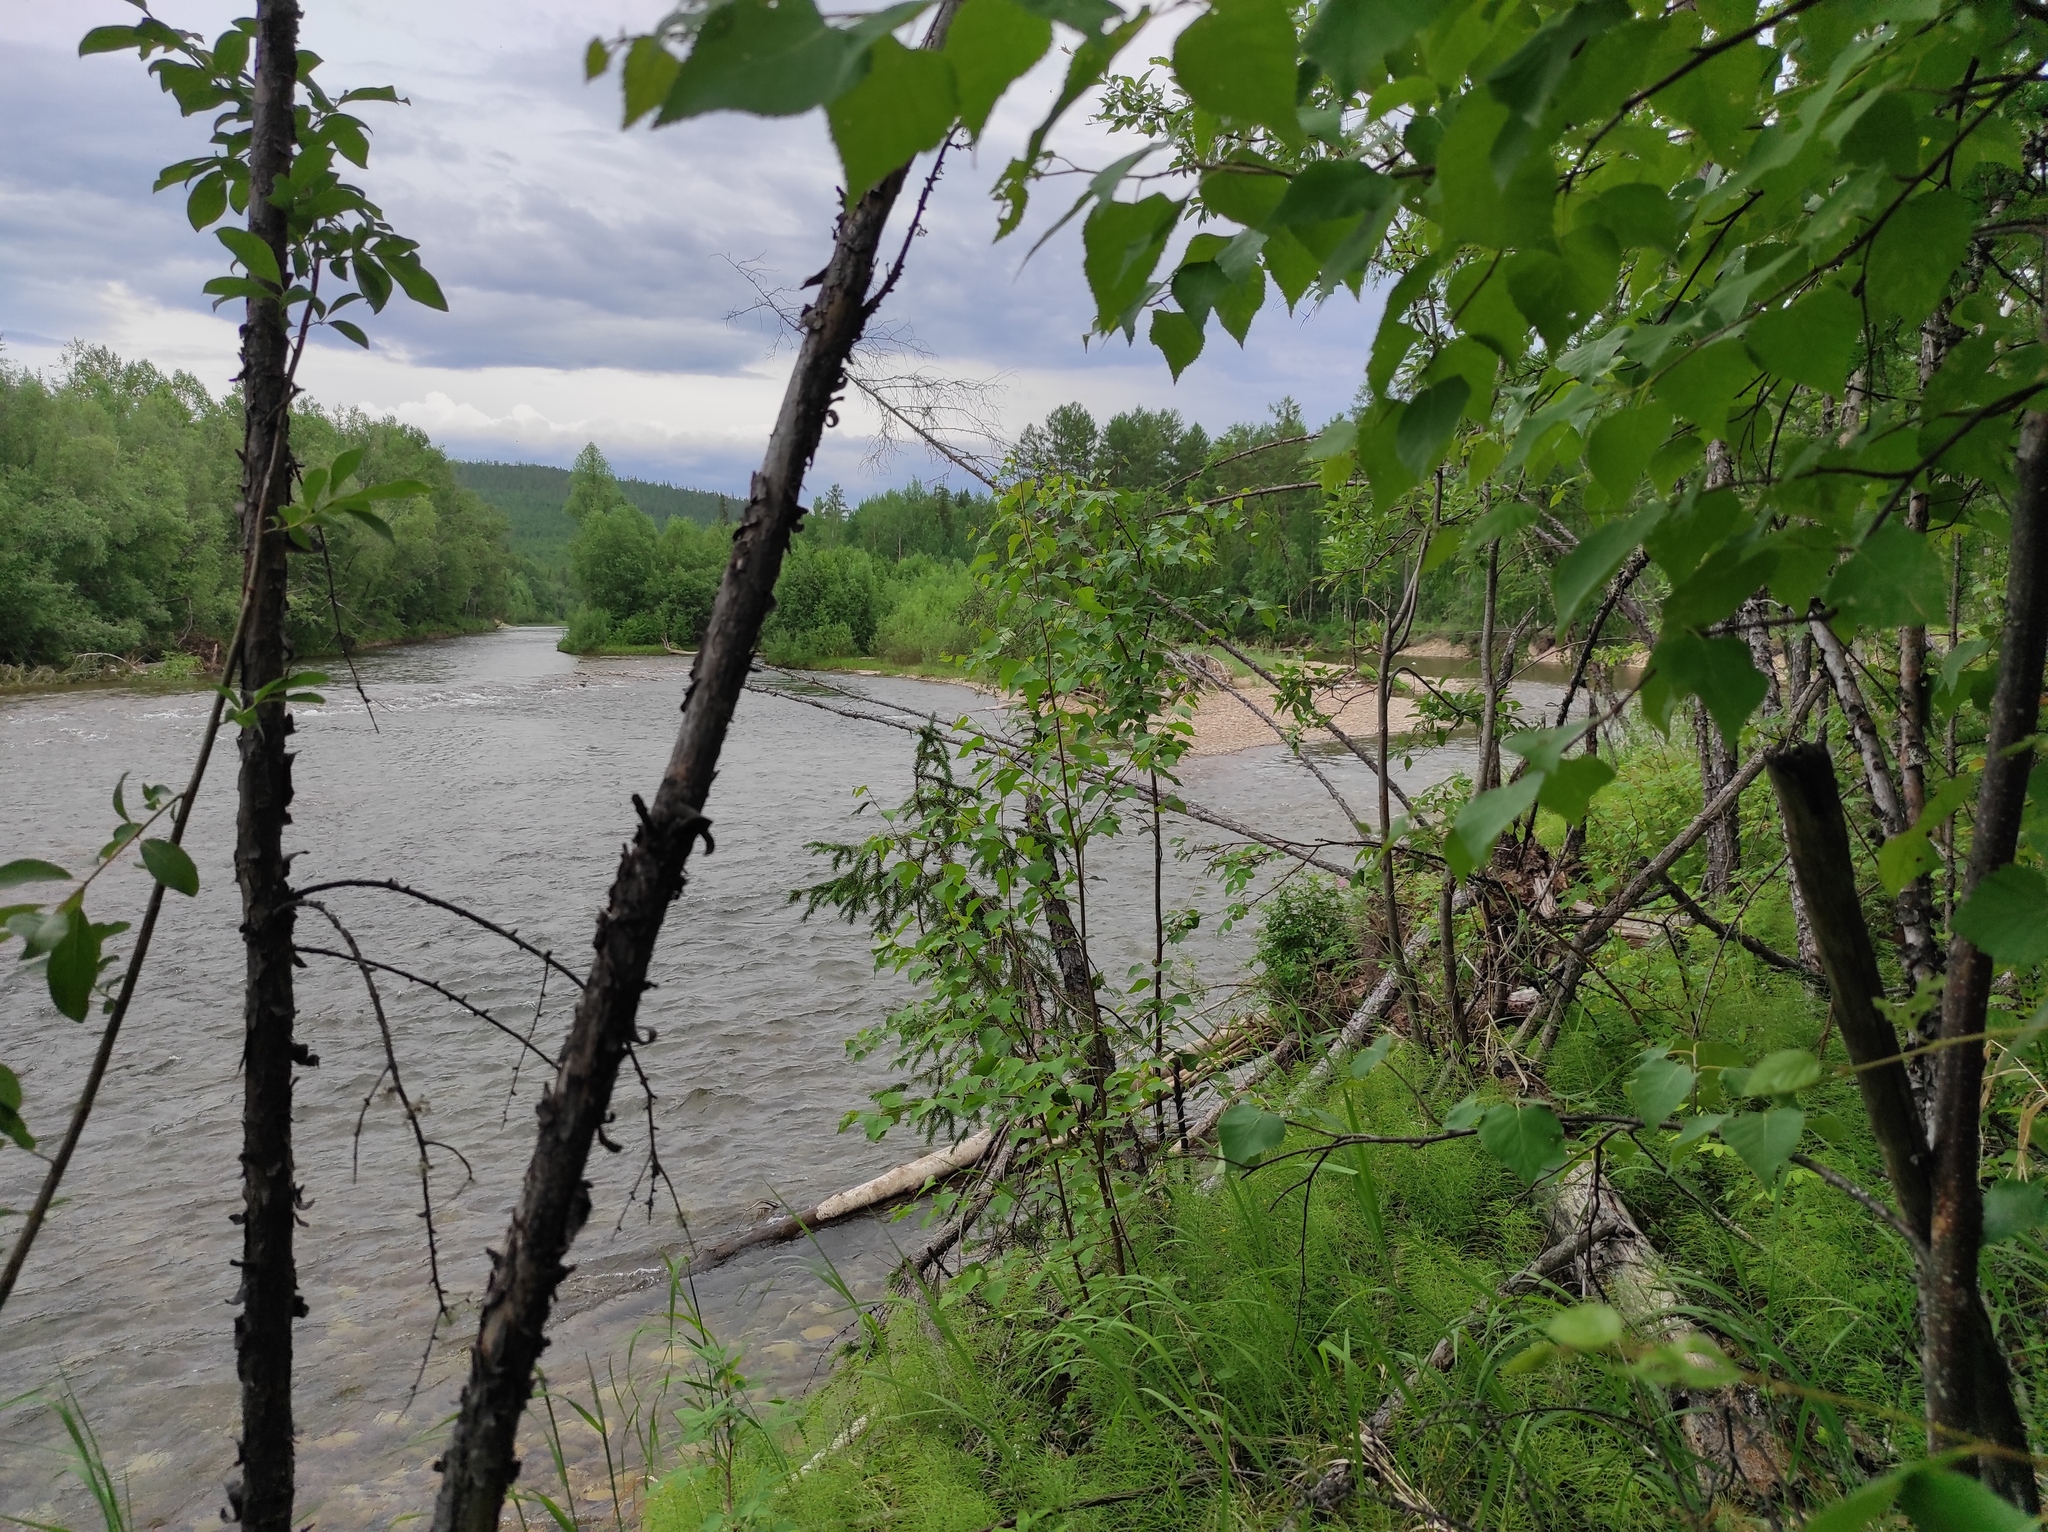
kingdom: Plantae
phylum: Tracheophyta
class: Pinopsida
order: Pinales
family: Pinaceae
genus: Larix
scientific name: Larix gmelinii
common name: Dahurian larch
